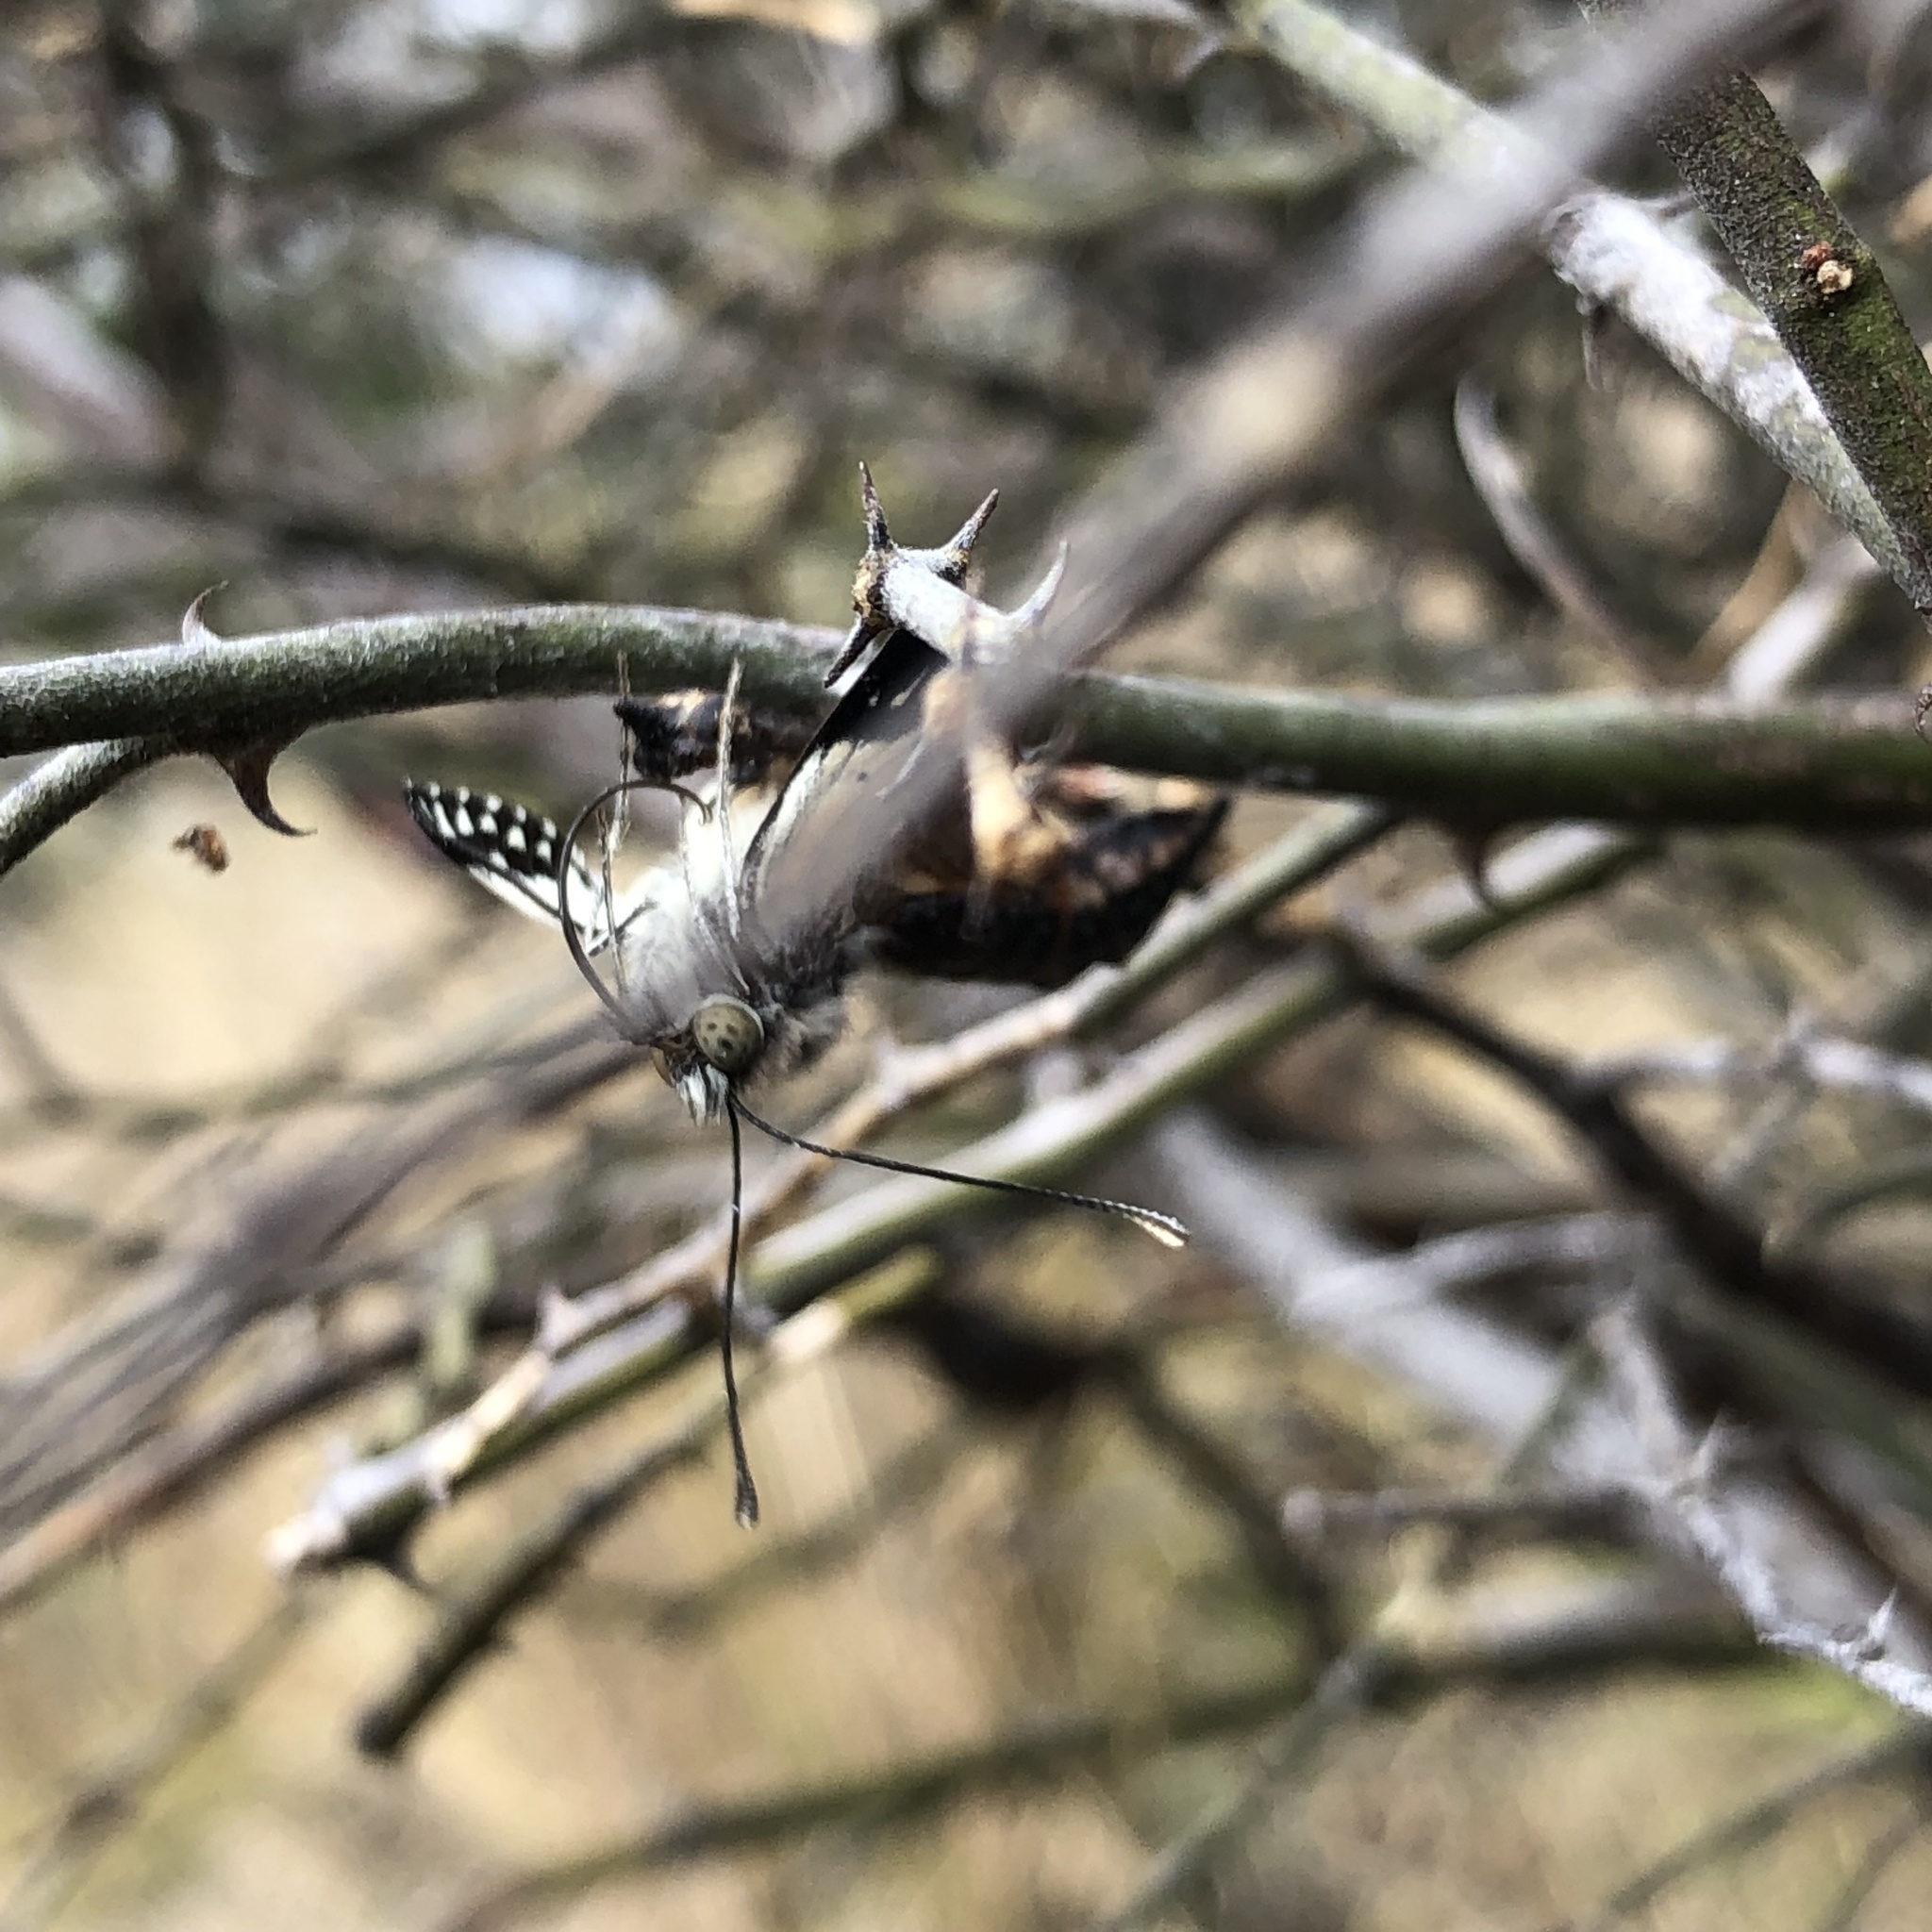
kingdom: Animalia
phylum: Arthropoda
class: Insecta
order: Lepidoptera
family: Pieridae
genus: Belenois
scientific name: Belenois java
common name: Caper white
